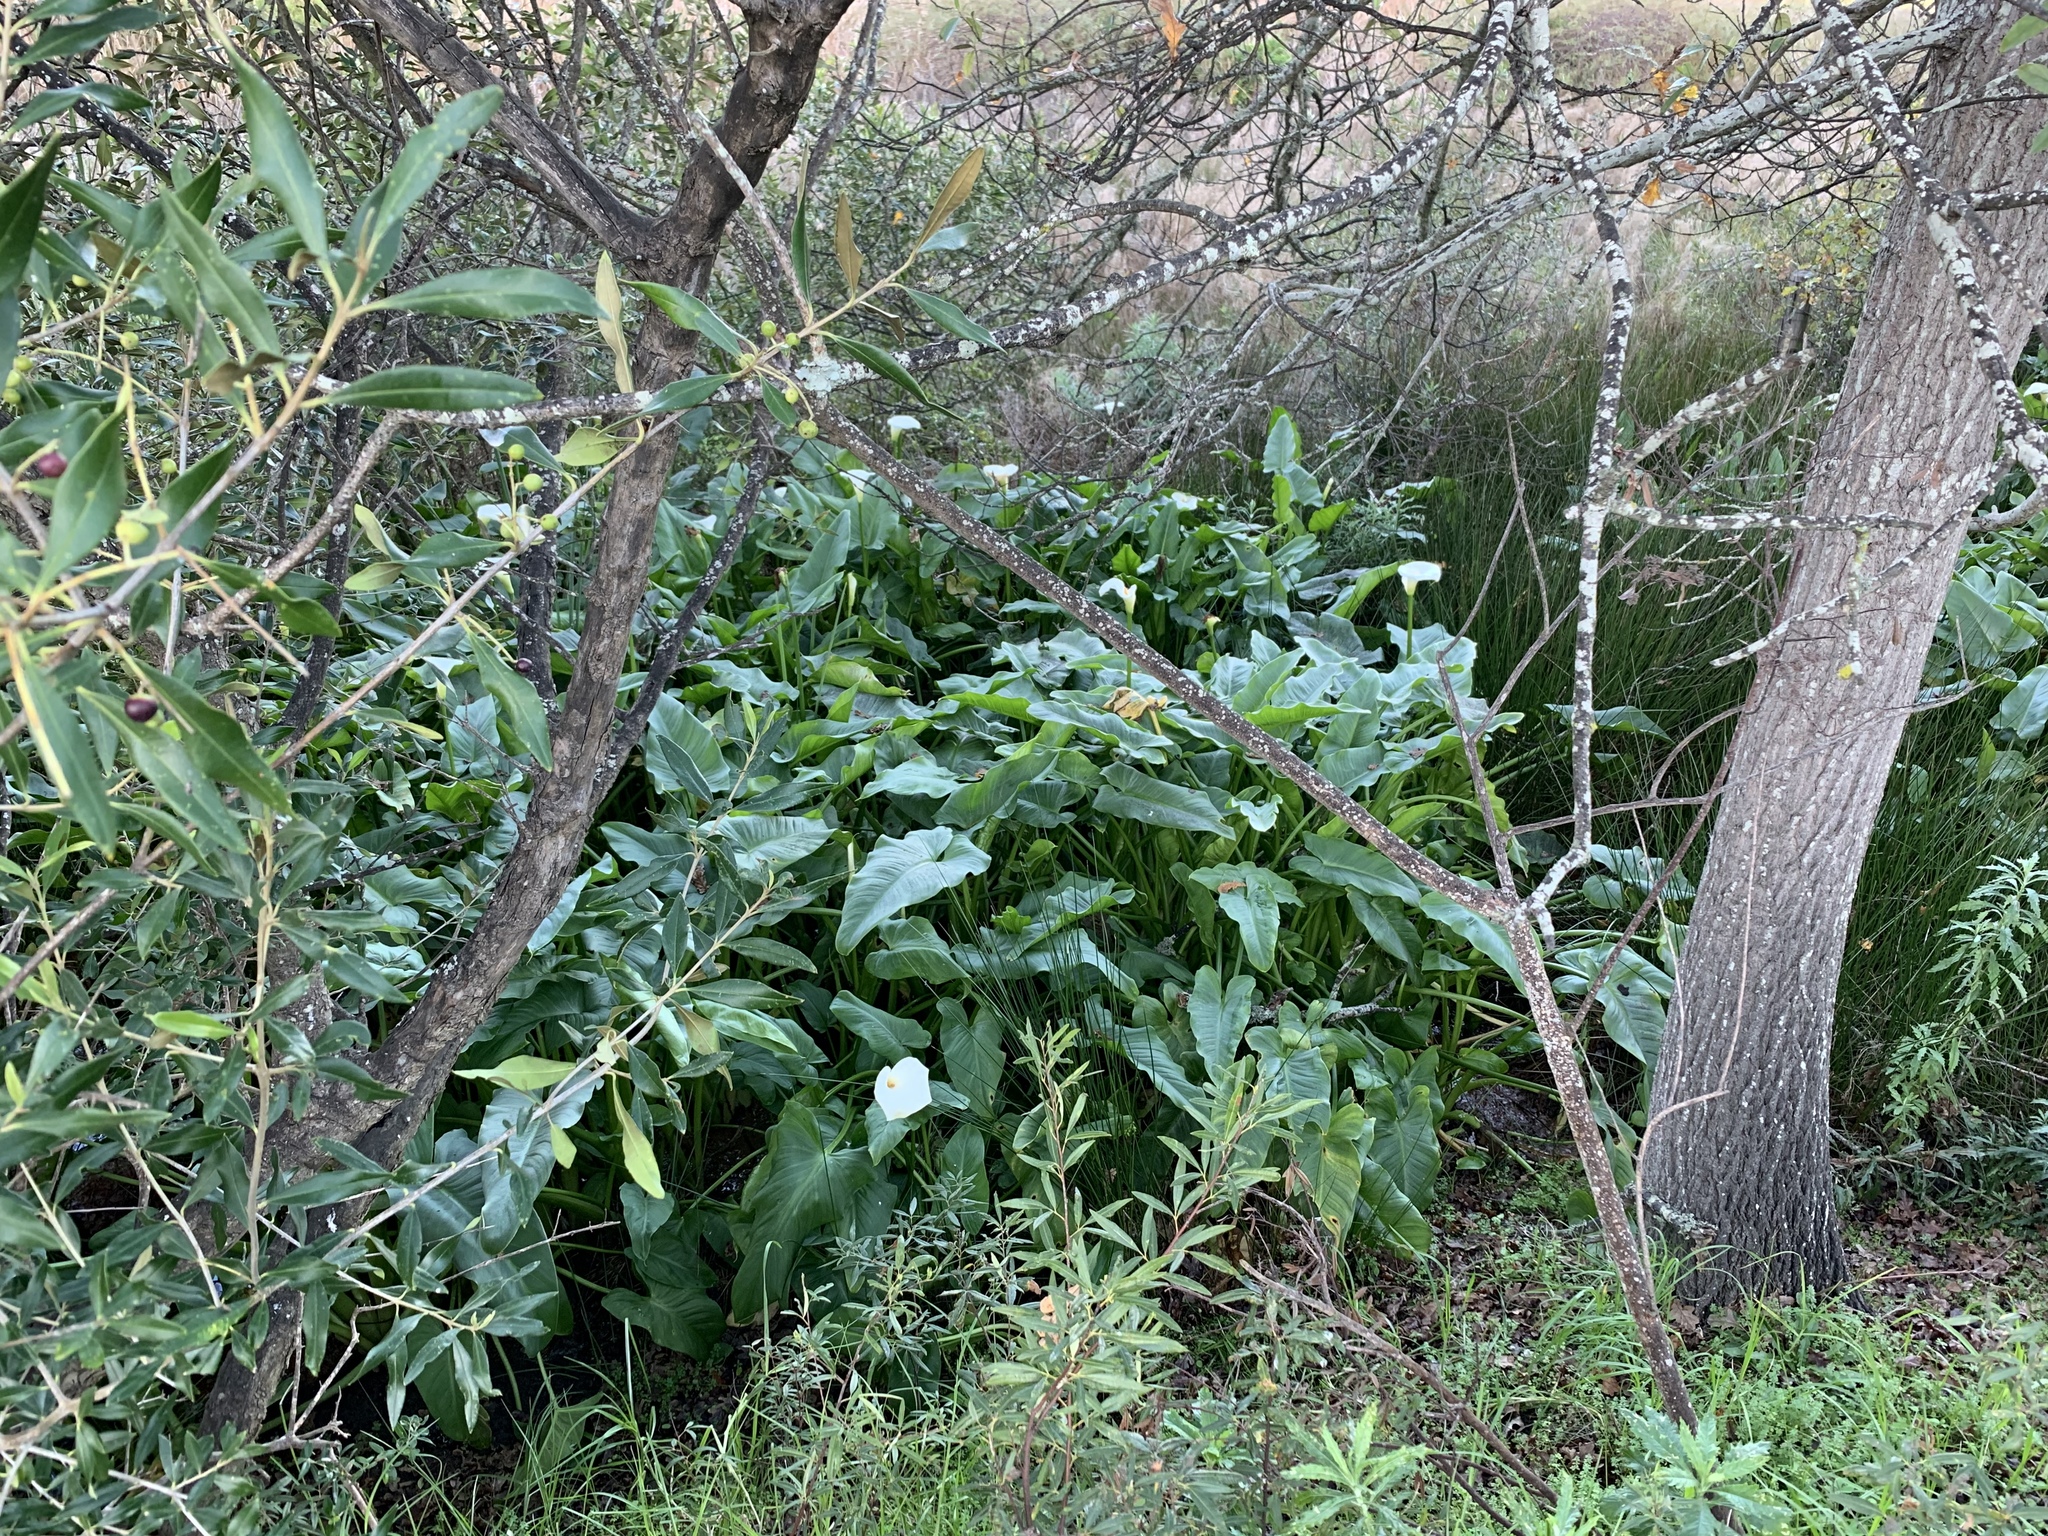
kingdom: Plantae
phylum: Tracheophyta
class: Liliopsida
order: Alismatales
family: Araceae
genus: Zantedeschia
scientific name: Zantedeschia aethiopica
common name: Altar-lily
